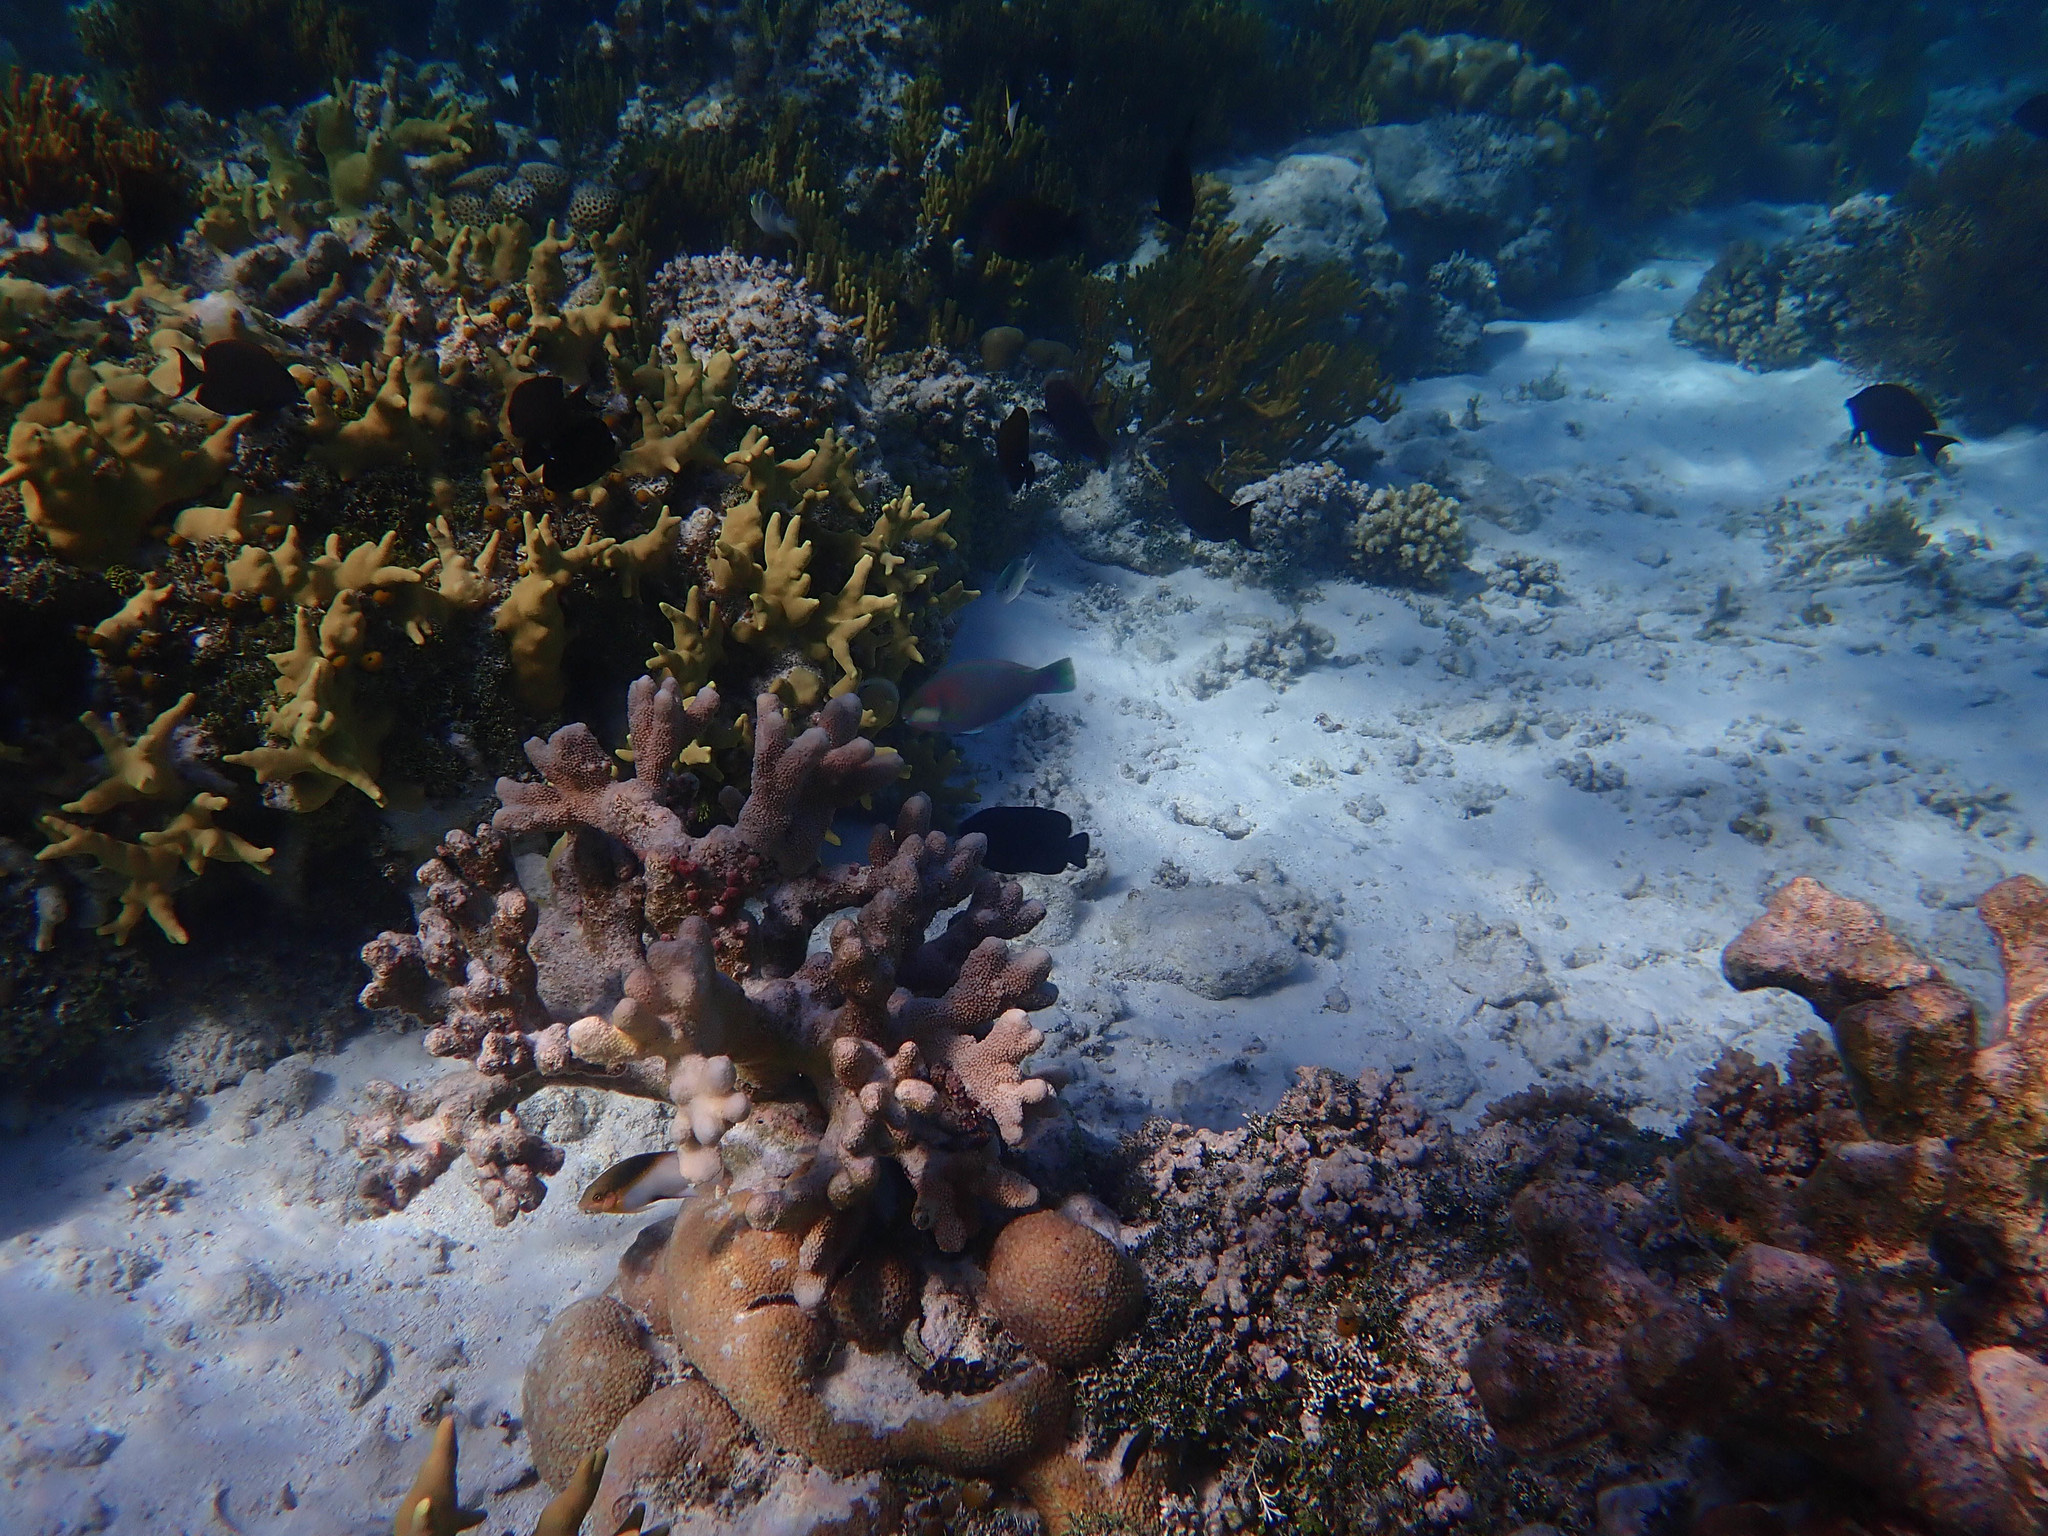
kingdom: Animalia
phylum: Chordata
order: Perciformes
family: Scaridae
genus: Chlorurus
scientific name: Chlorurus bleekeri
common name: Bleeker's parrotfish
